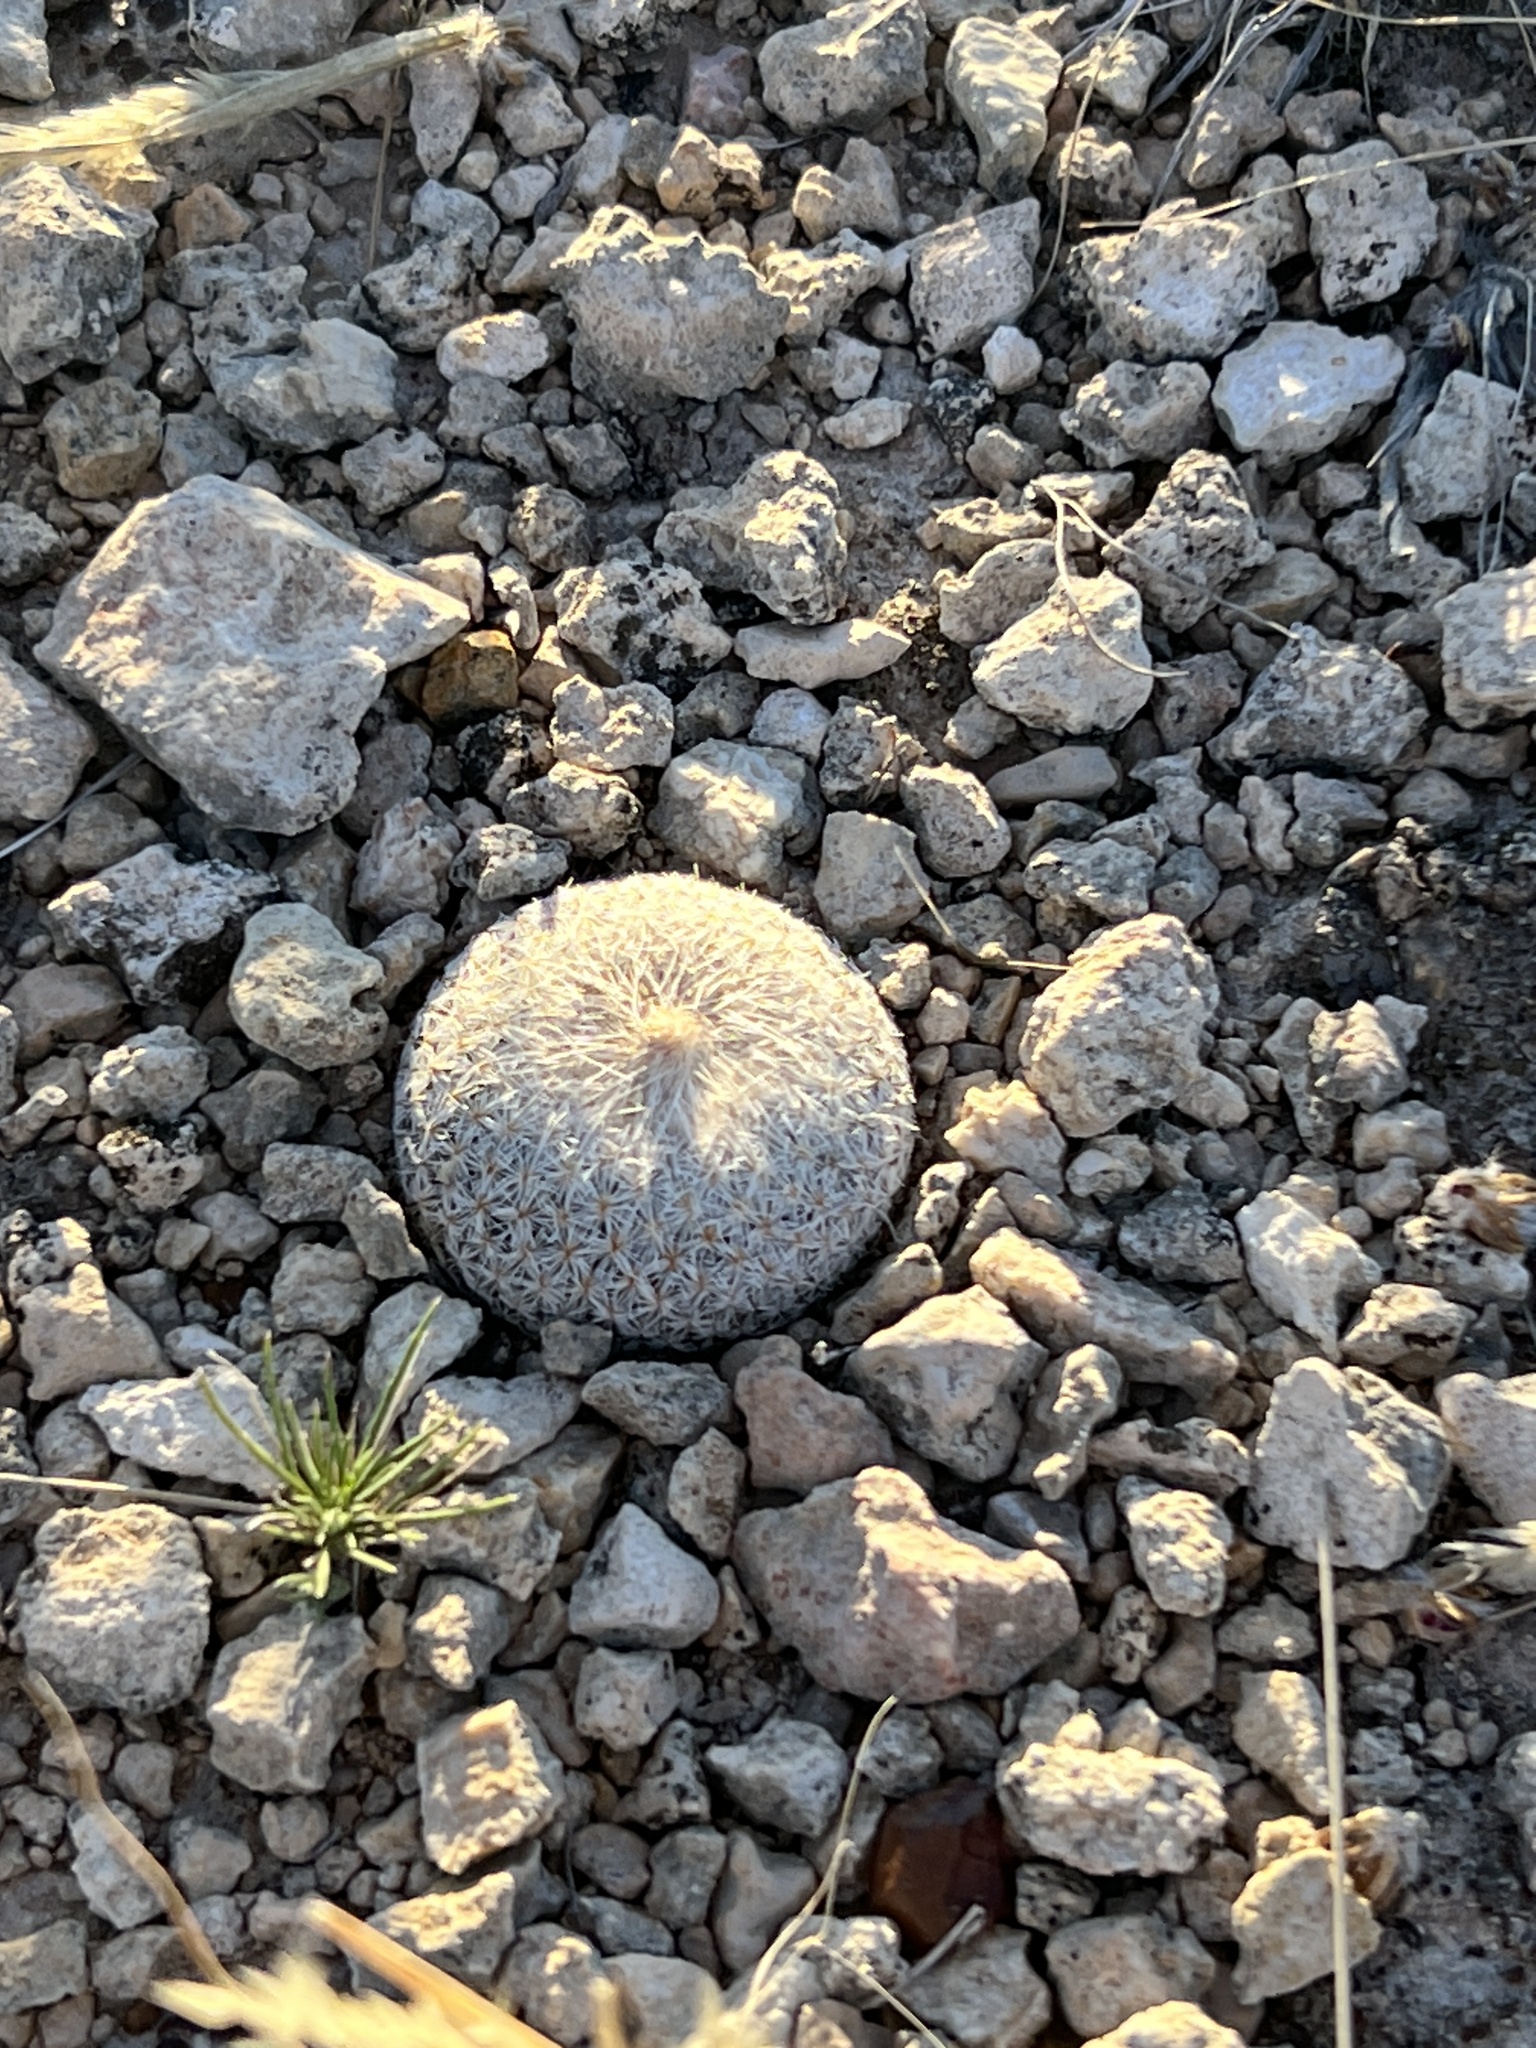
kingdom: Plantae
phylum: Tracheophyta
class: Magnoliopsida
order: Caryophyllales
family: Cactaceae
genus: Epithelantha
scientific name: Epithelantha micromeris
